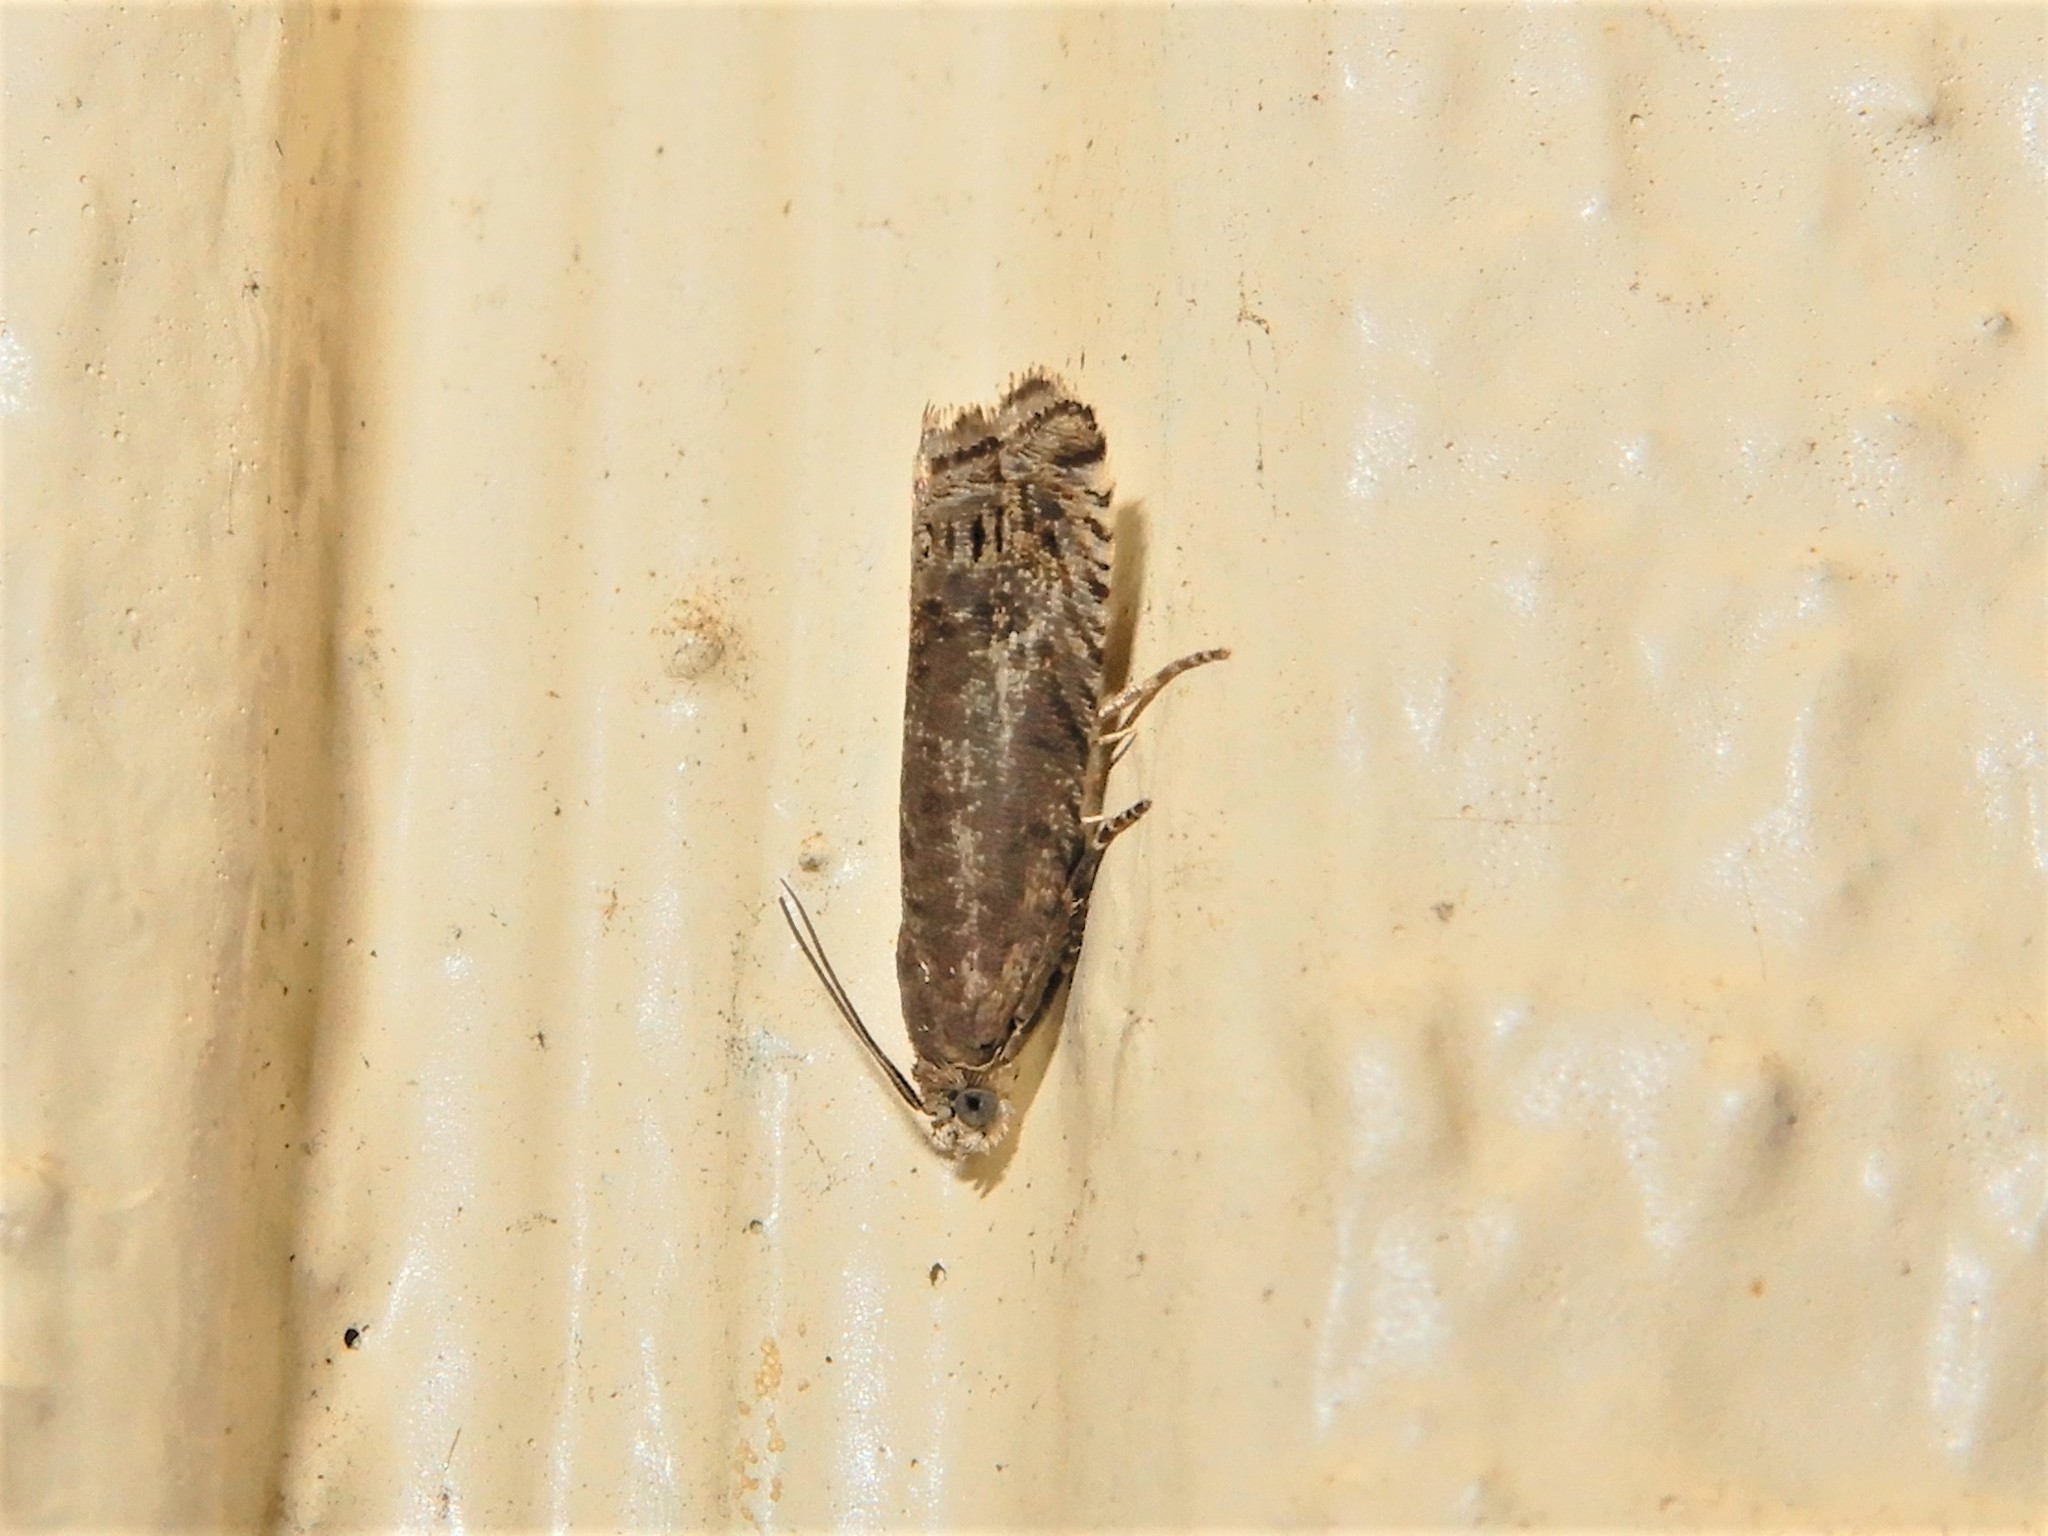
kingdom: Animalia
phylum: Arthropoda
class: Insecta
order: Lepidoptera
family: Tortricidae
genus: Cydia
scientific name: Cydia succedana
